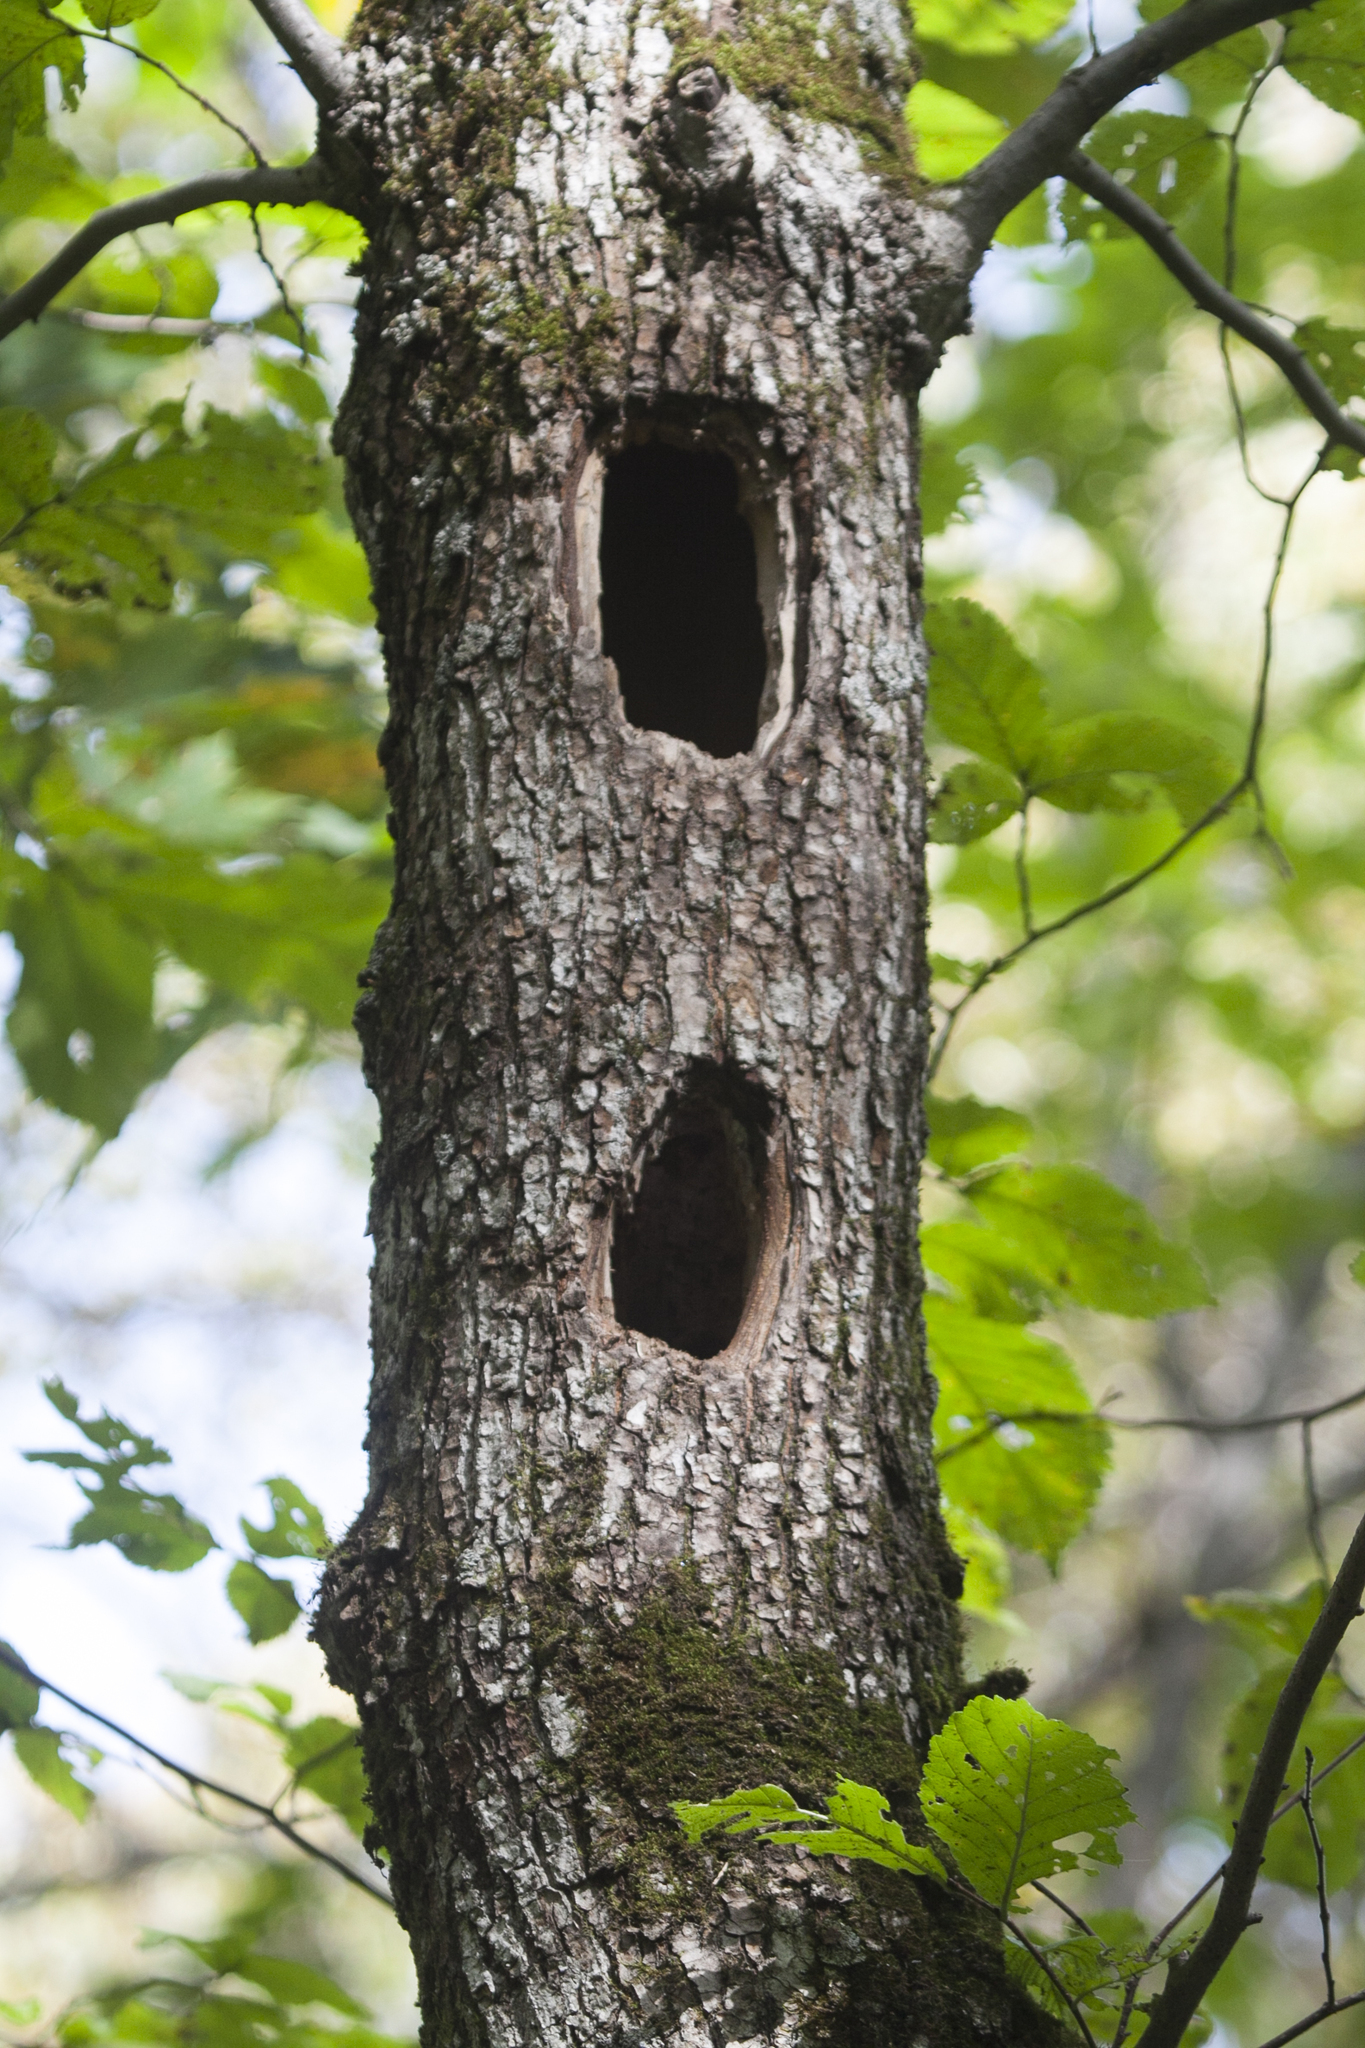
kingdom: Animalia
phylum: Chordata
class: Aves
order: Piciformes
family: Picidae
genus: Dryocopus
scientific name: Dryocopus martius
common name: Black woodpecker
